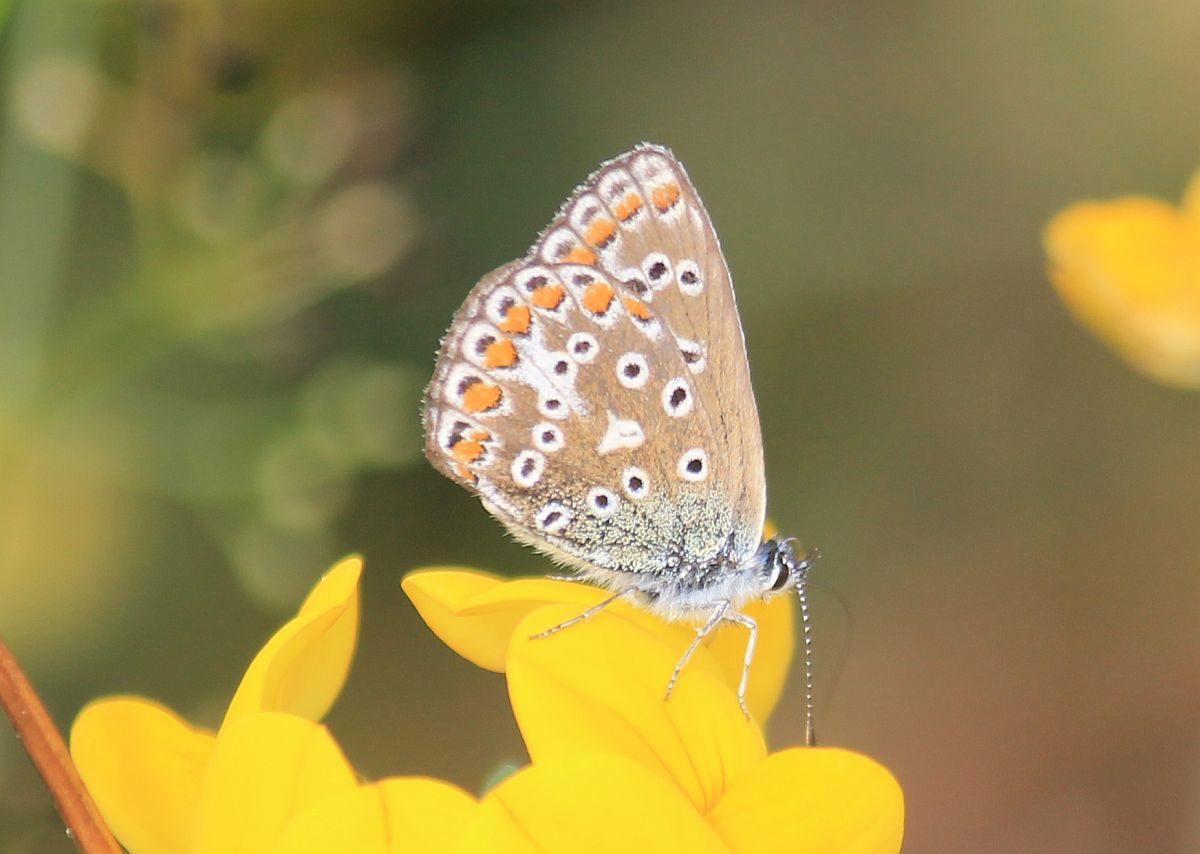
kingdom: Animalia
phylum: Arthropoda
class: Insecta
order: Lepidoptera
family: Lycaenidae
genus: Polyommatus
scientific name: Polyommatus icarus
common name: Common blue
